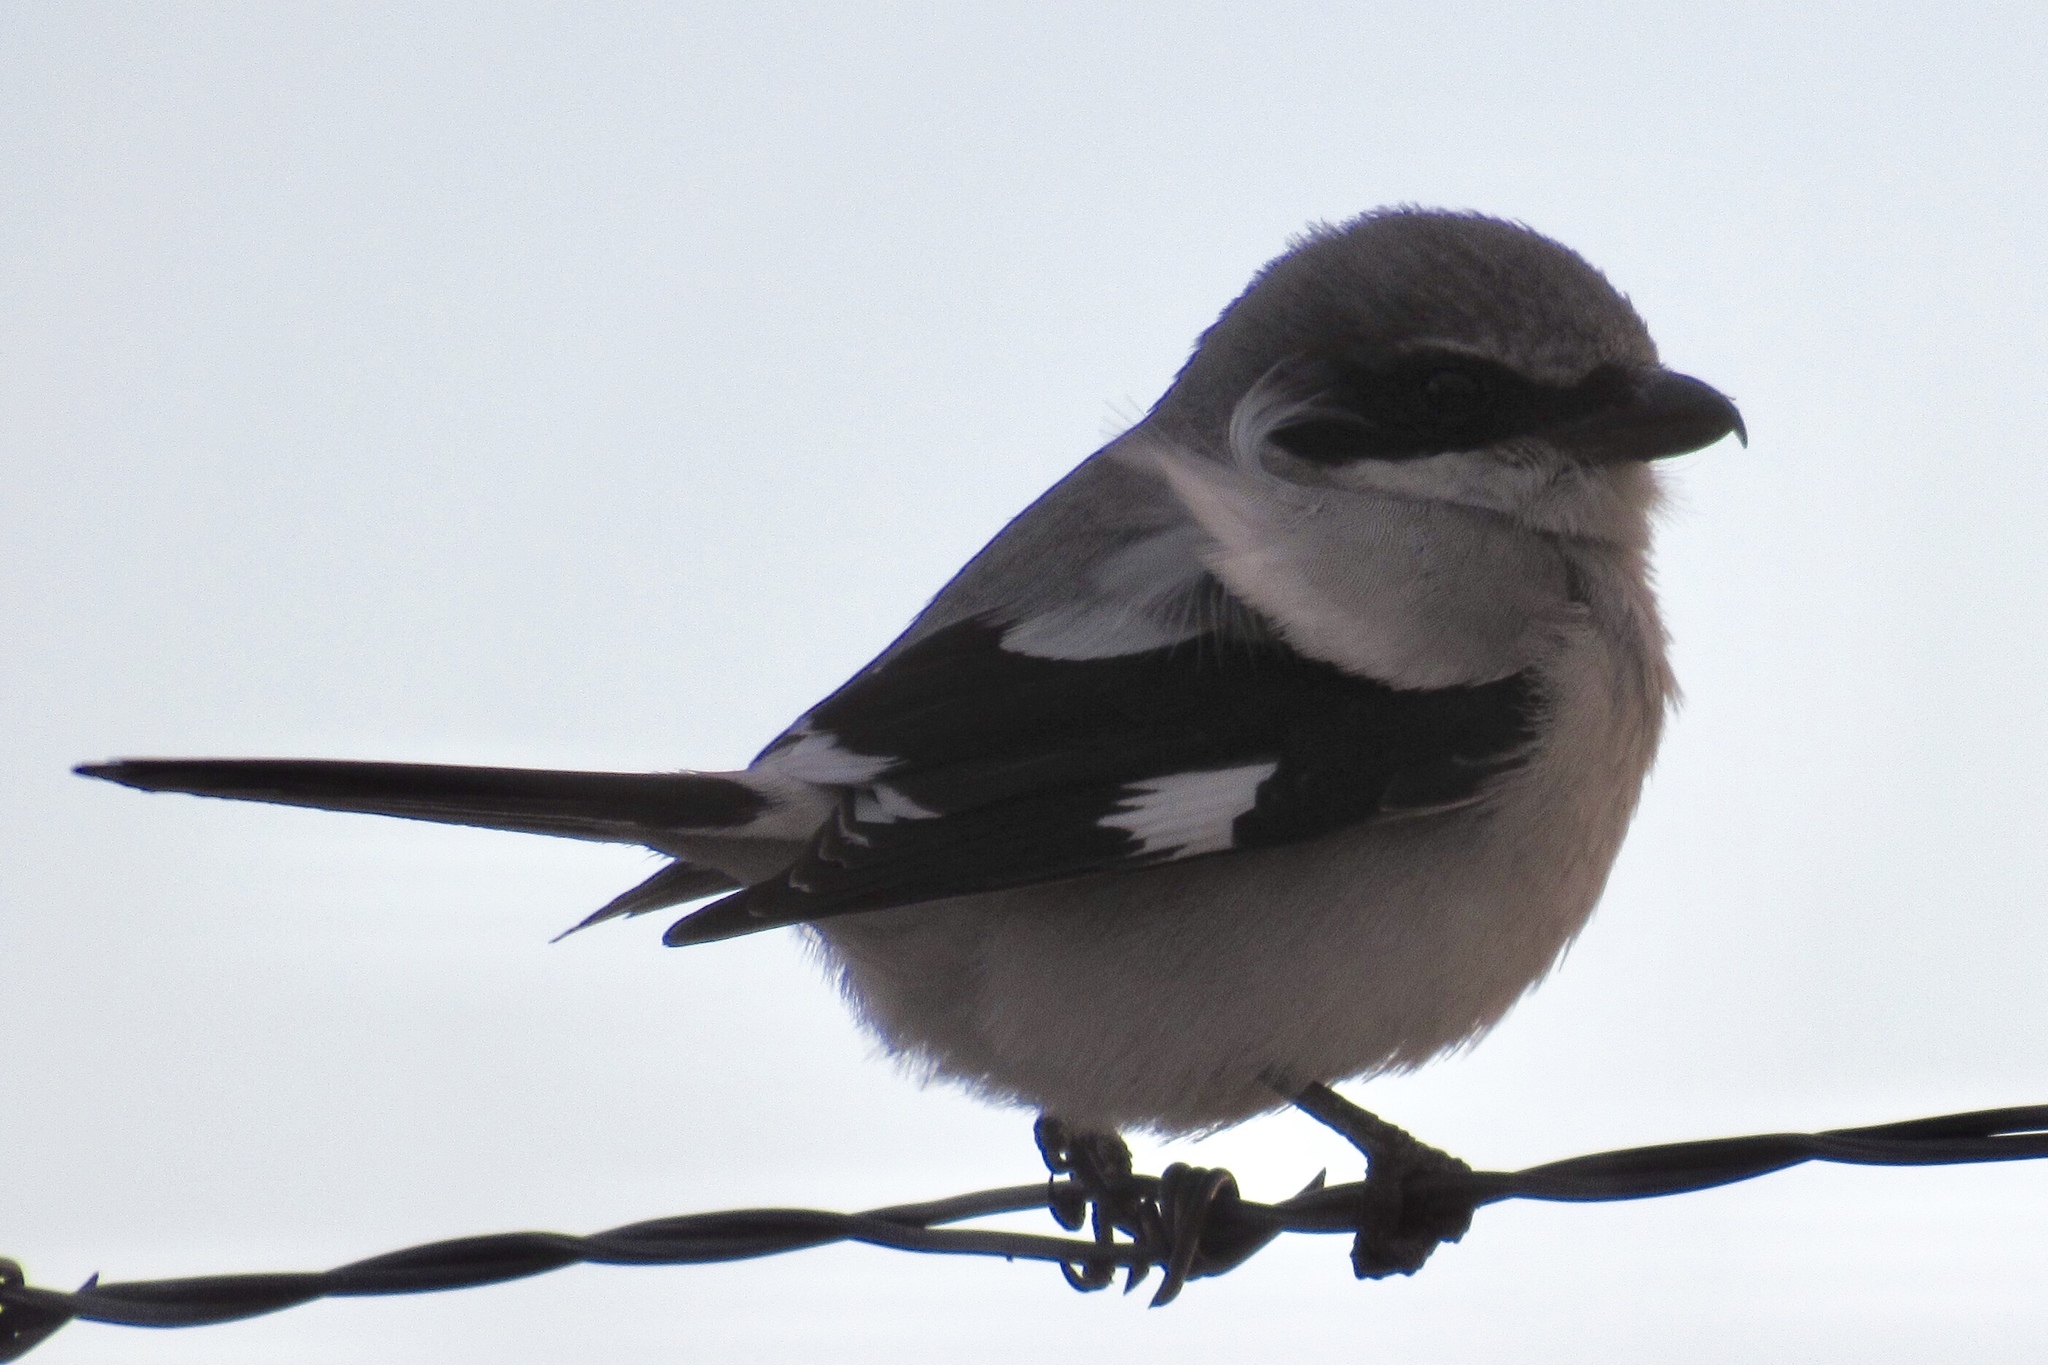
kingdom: Animalia
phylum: Chordata
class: Aves
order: Passeriformes
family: Laniidae
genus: Lanius
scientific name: Lanius ludovicianus
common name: Loggerhead shrike
